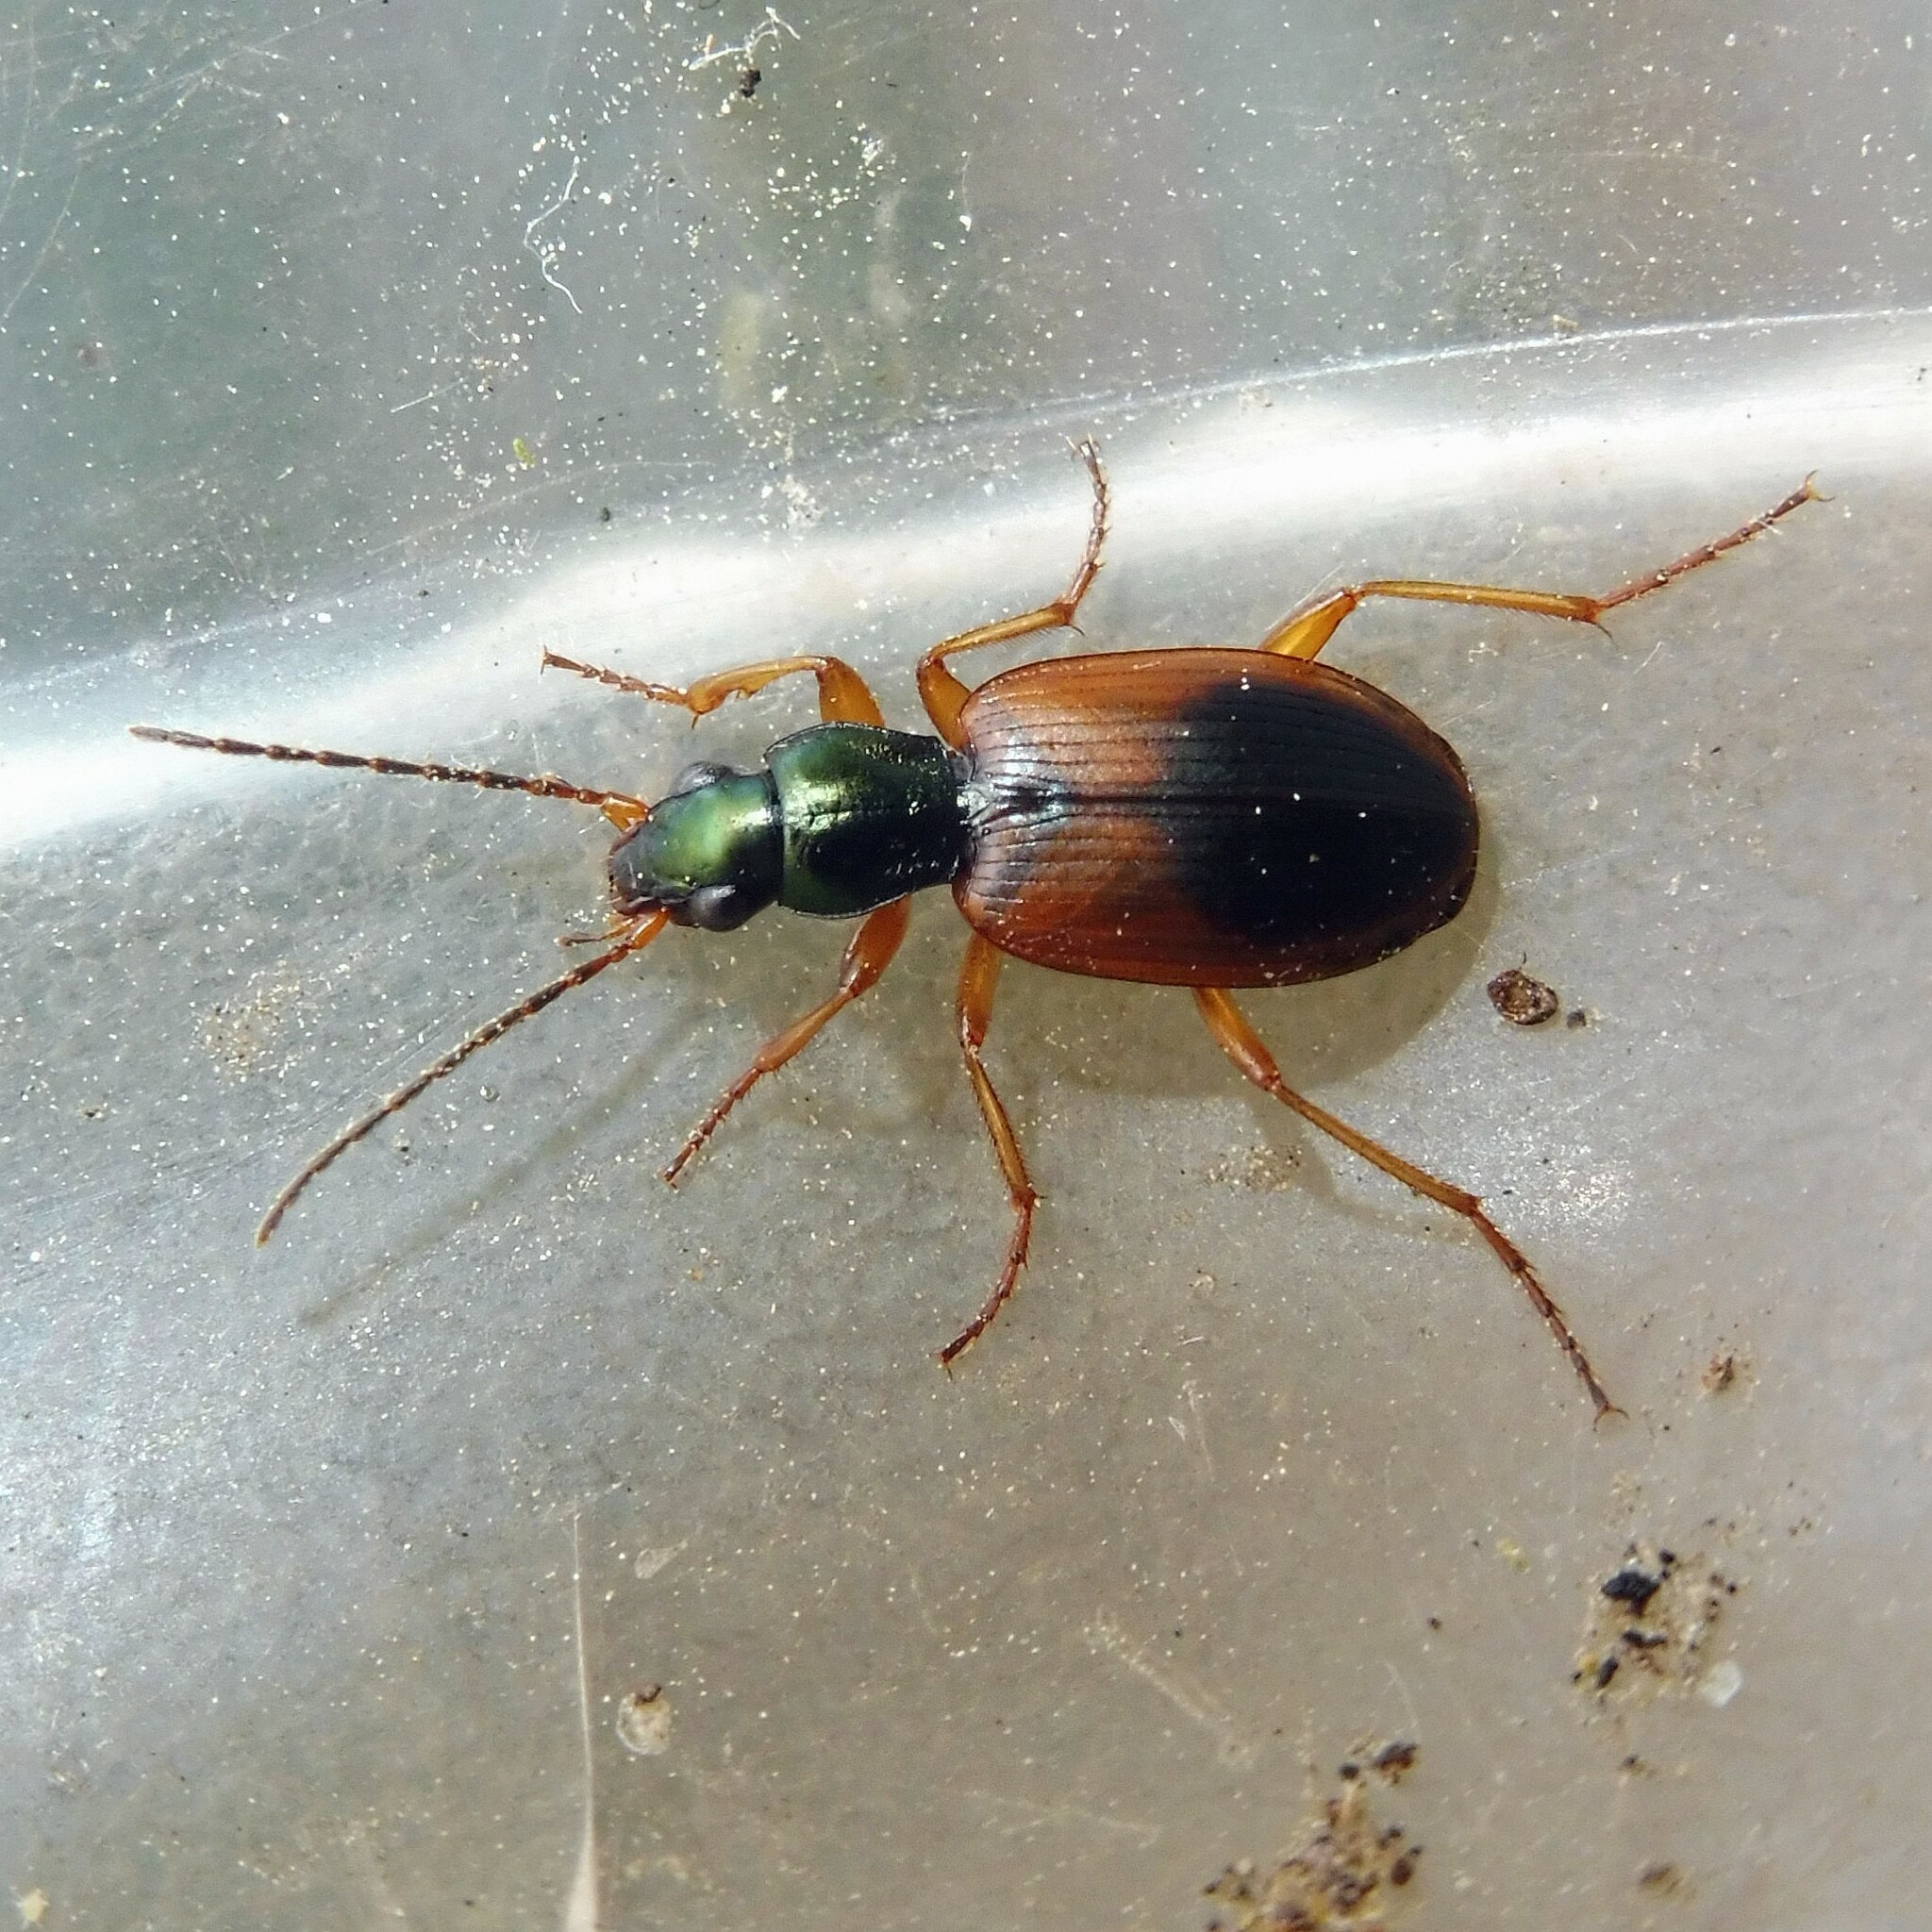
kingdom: Animalia
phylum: Arthropoda
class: Insecta
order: Coleoptera
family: Carabidae
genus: Anchomenus
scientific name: Anchomenus dorsalis
